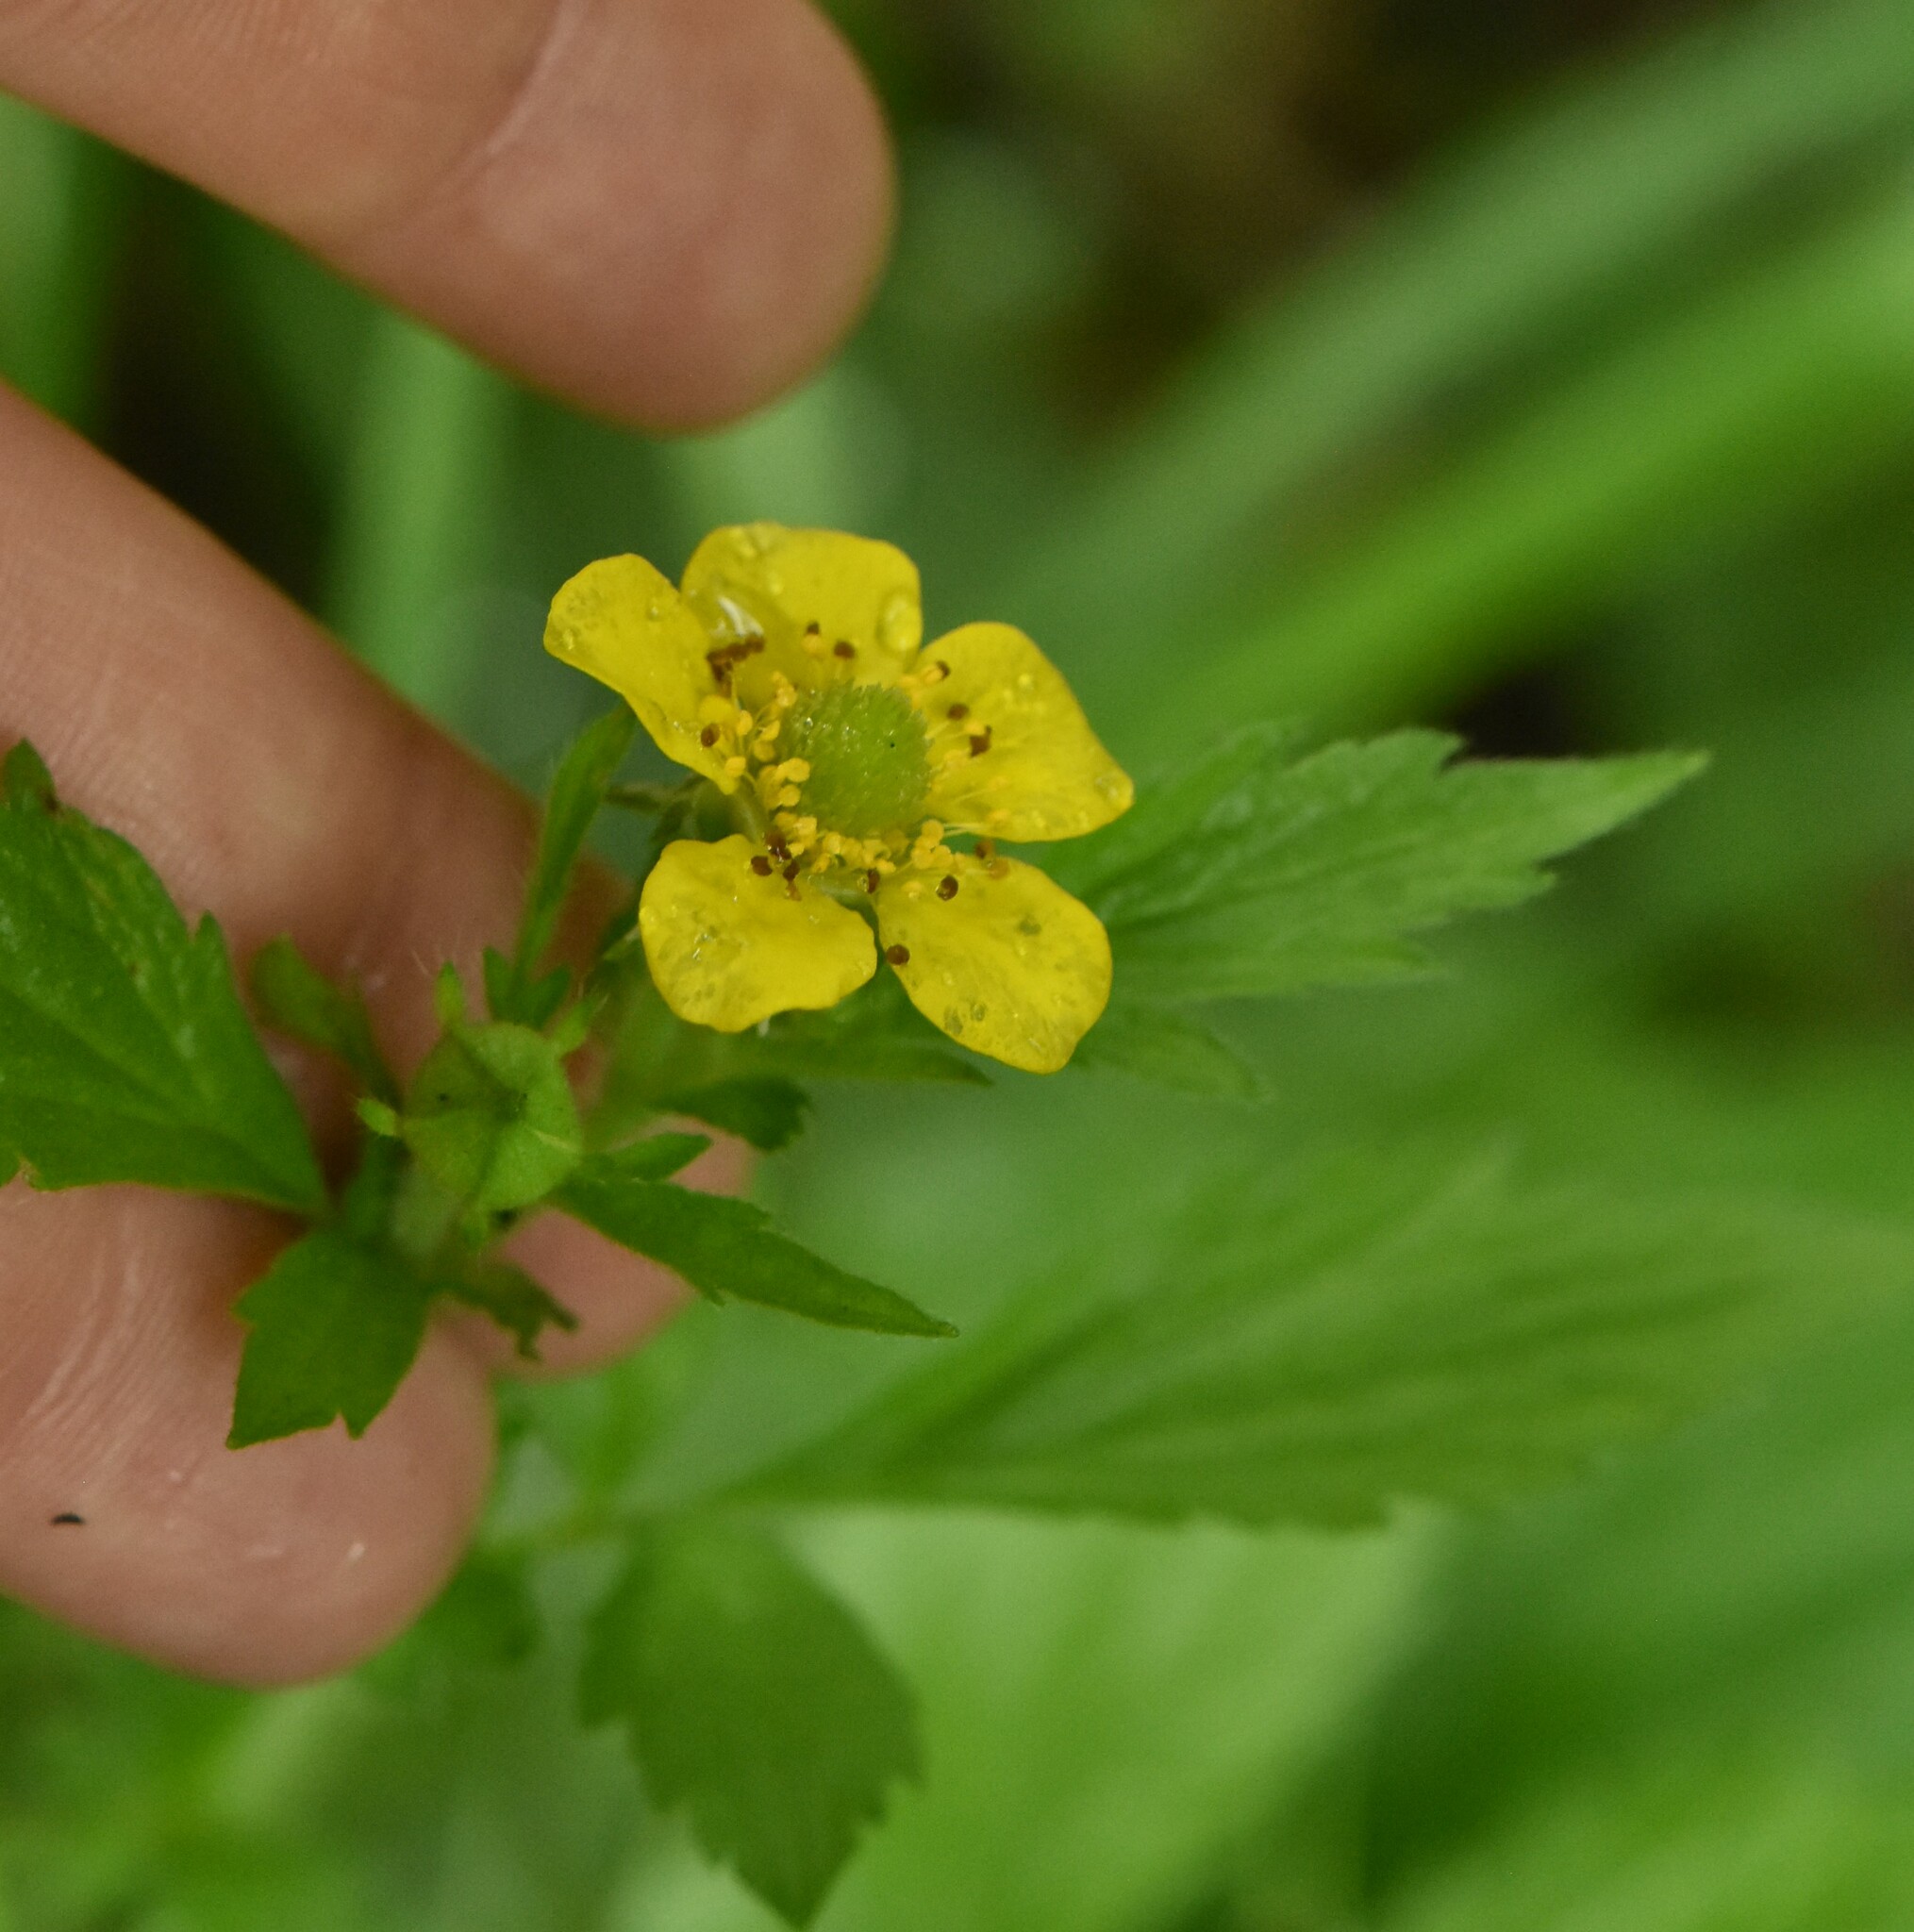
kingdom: Plantae
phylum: Tracheophyta
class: Magnoliopsida
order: Rosales
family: Rosaceae
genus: Geum
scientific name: Geum aleppicum
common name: Yellow avens
